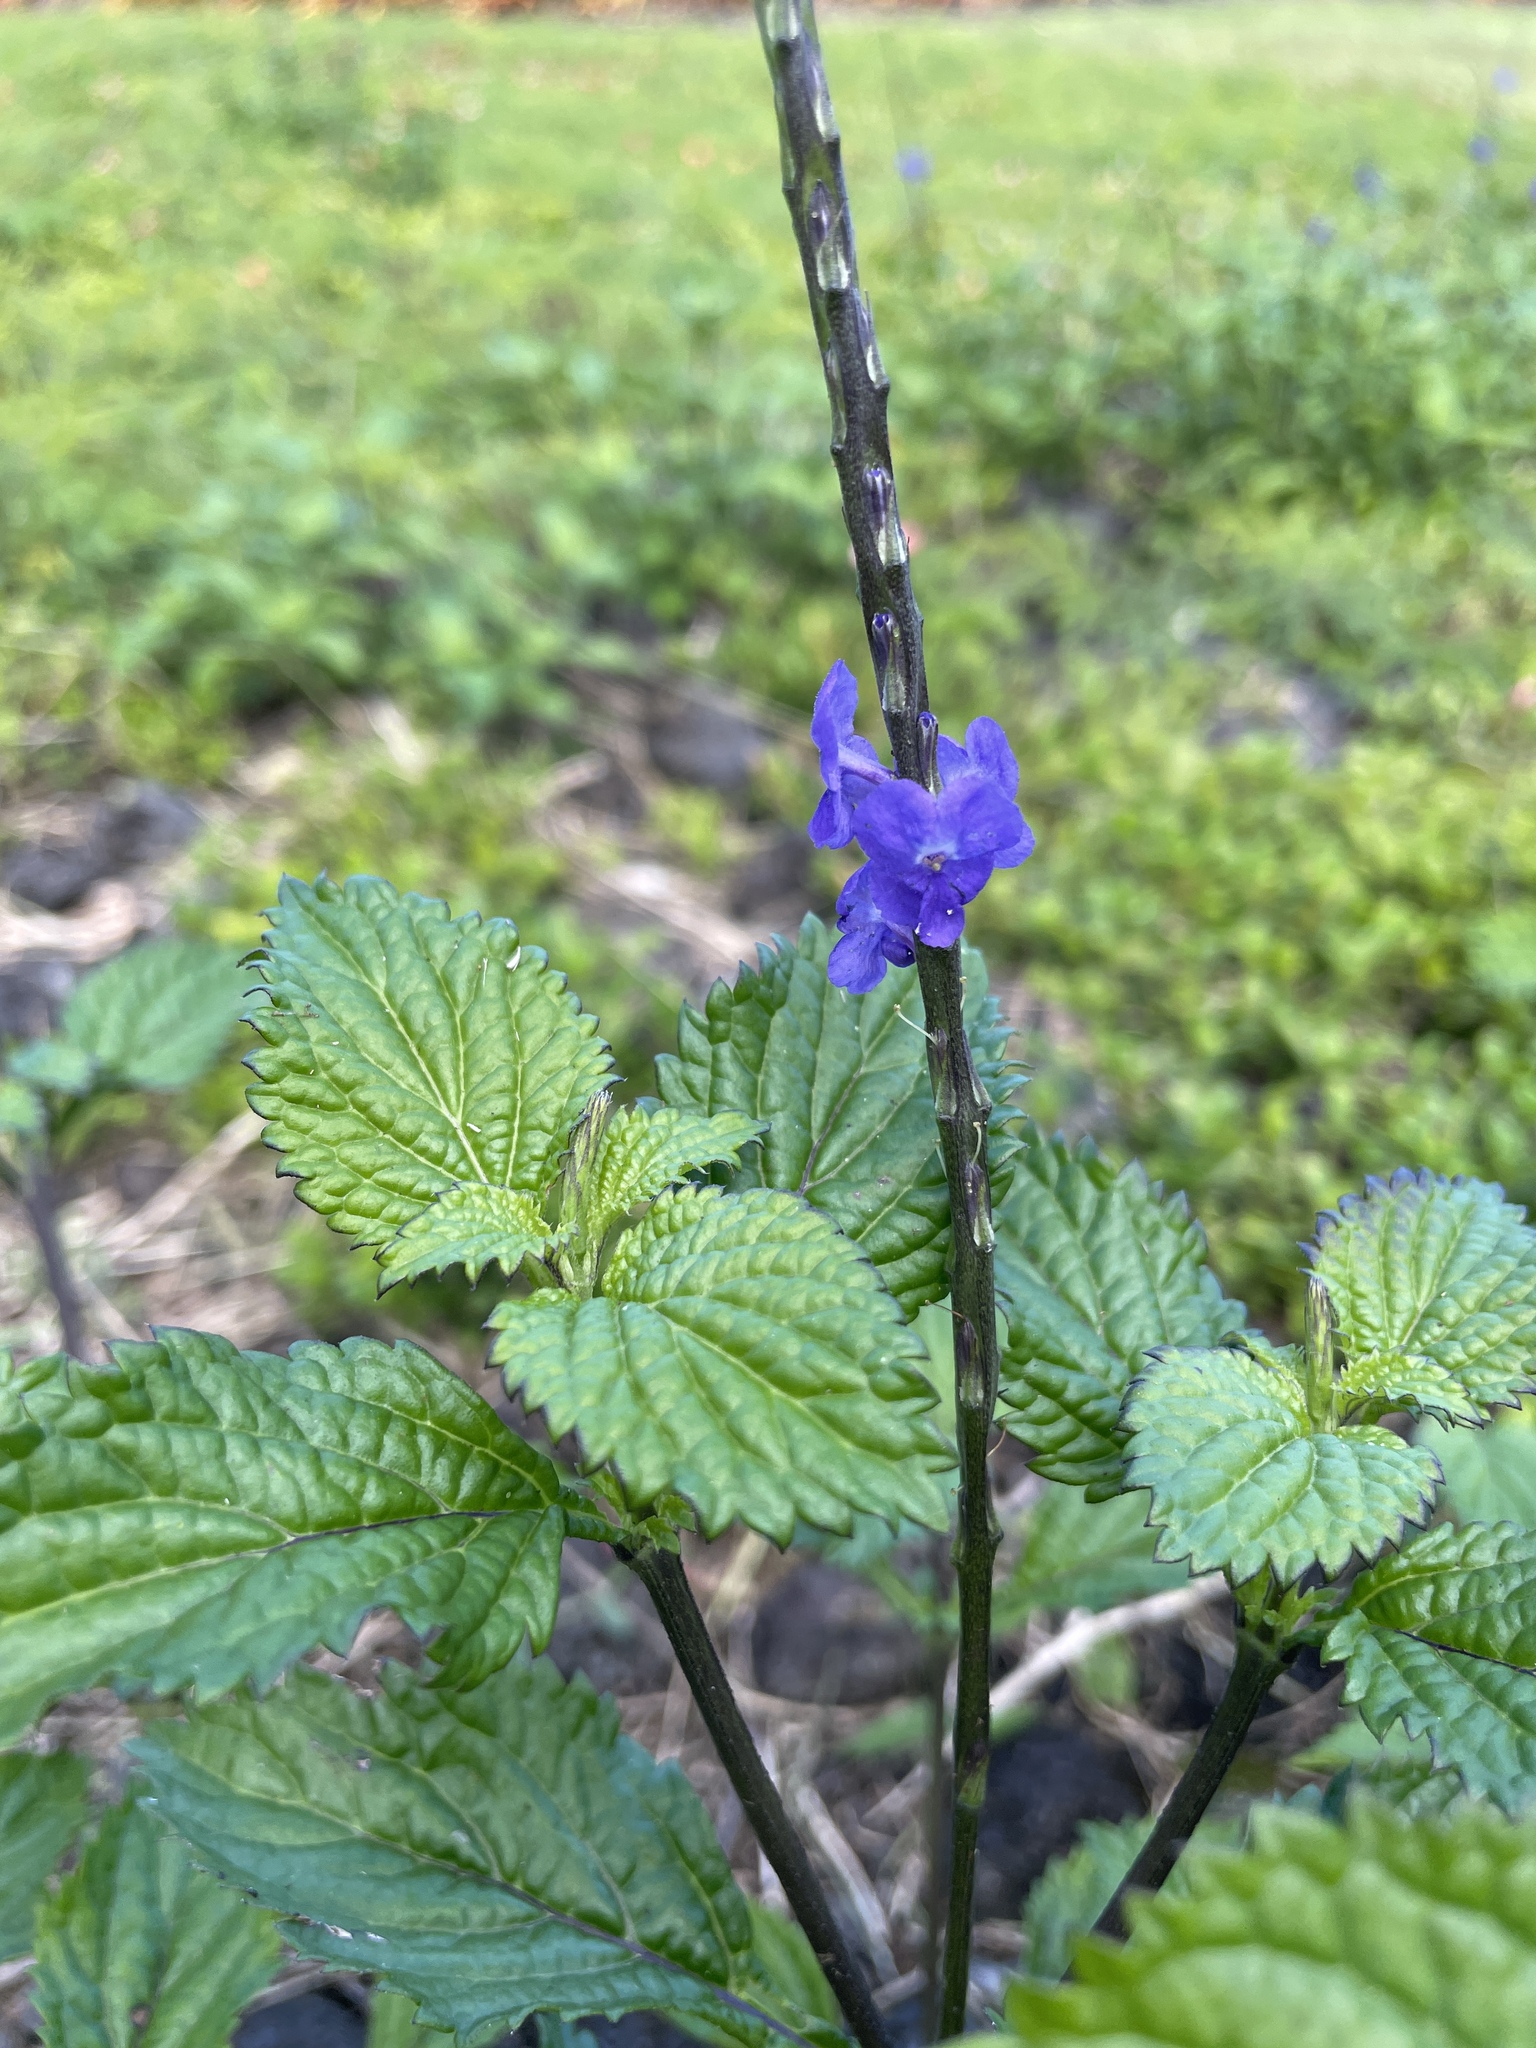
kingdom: Plantae
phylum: Tracheophyta
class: Magnoliopsida
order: Lamiales
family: Verbenaceae
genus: Stachytarpheta
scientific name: Stachytarpheta cayennensis
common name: Cayenne porterweed
